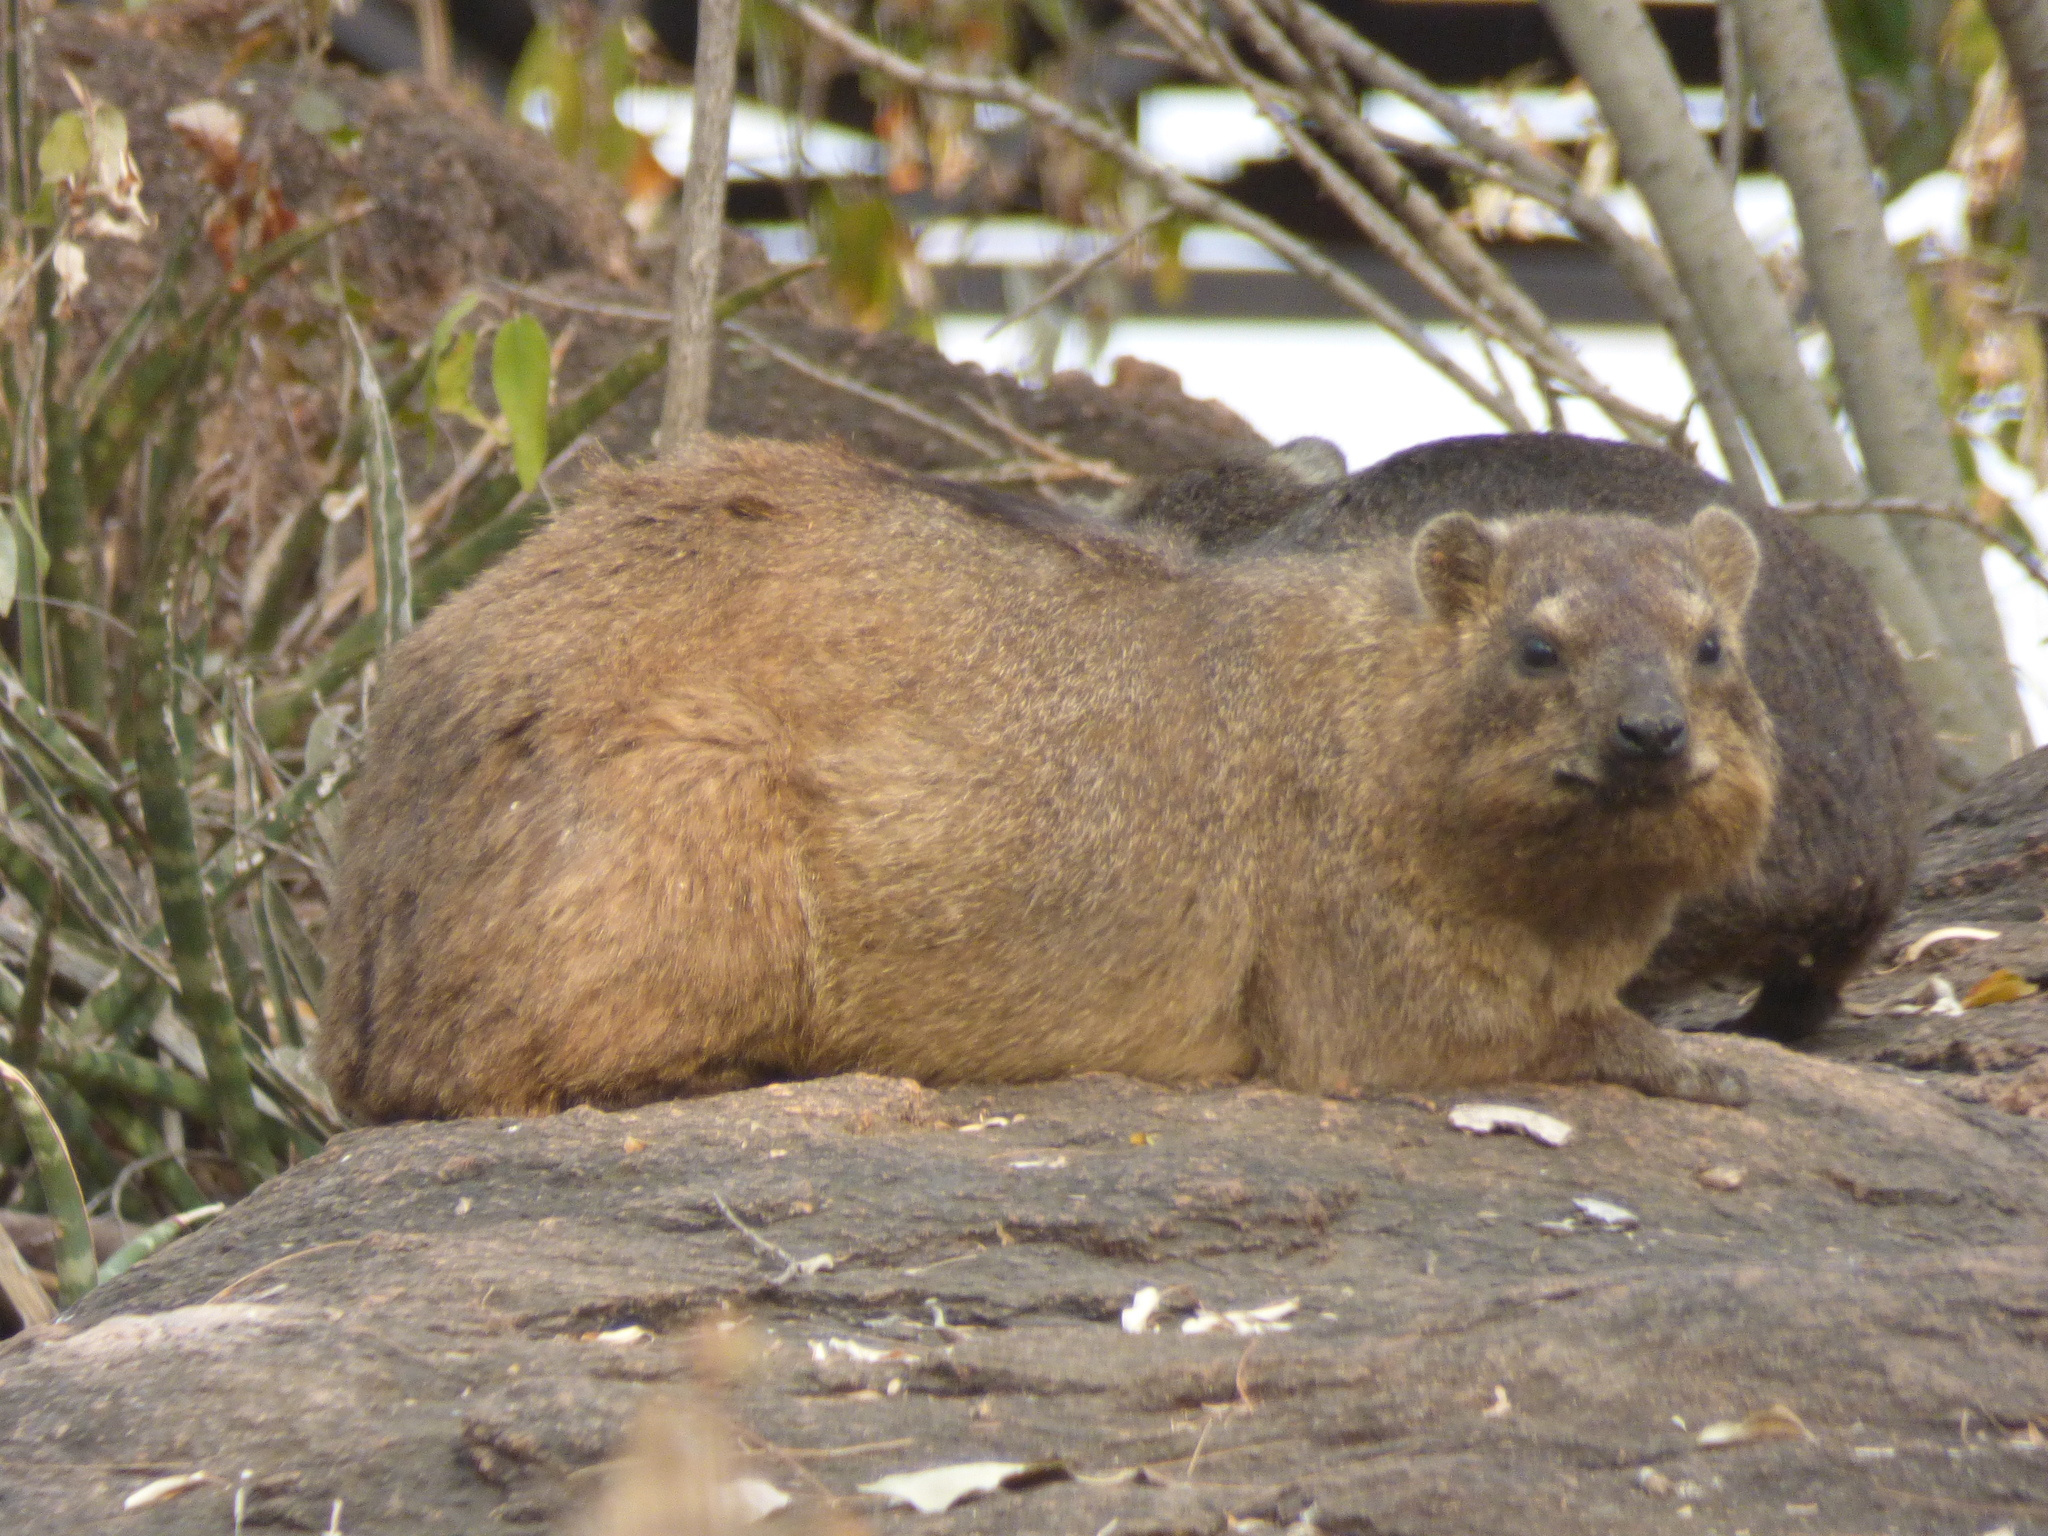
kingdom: Animalia
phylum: Chordata
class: Mammalia
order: Hyracoidea
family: Procaviidae
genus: Procavia
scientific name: Procavia capensis
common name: Rock hyrax
